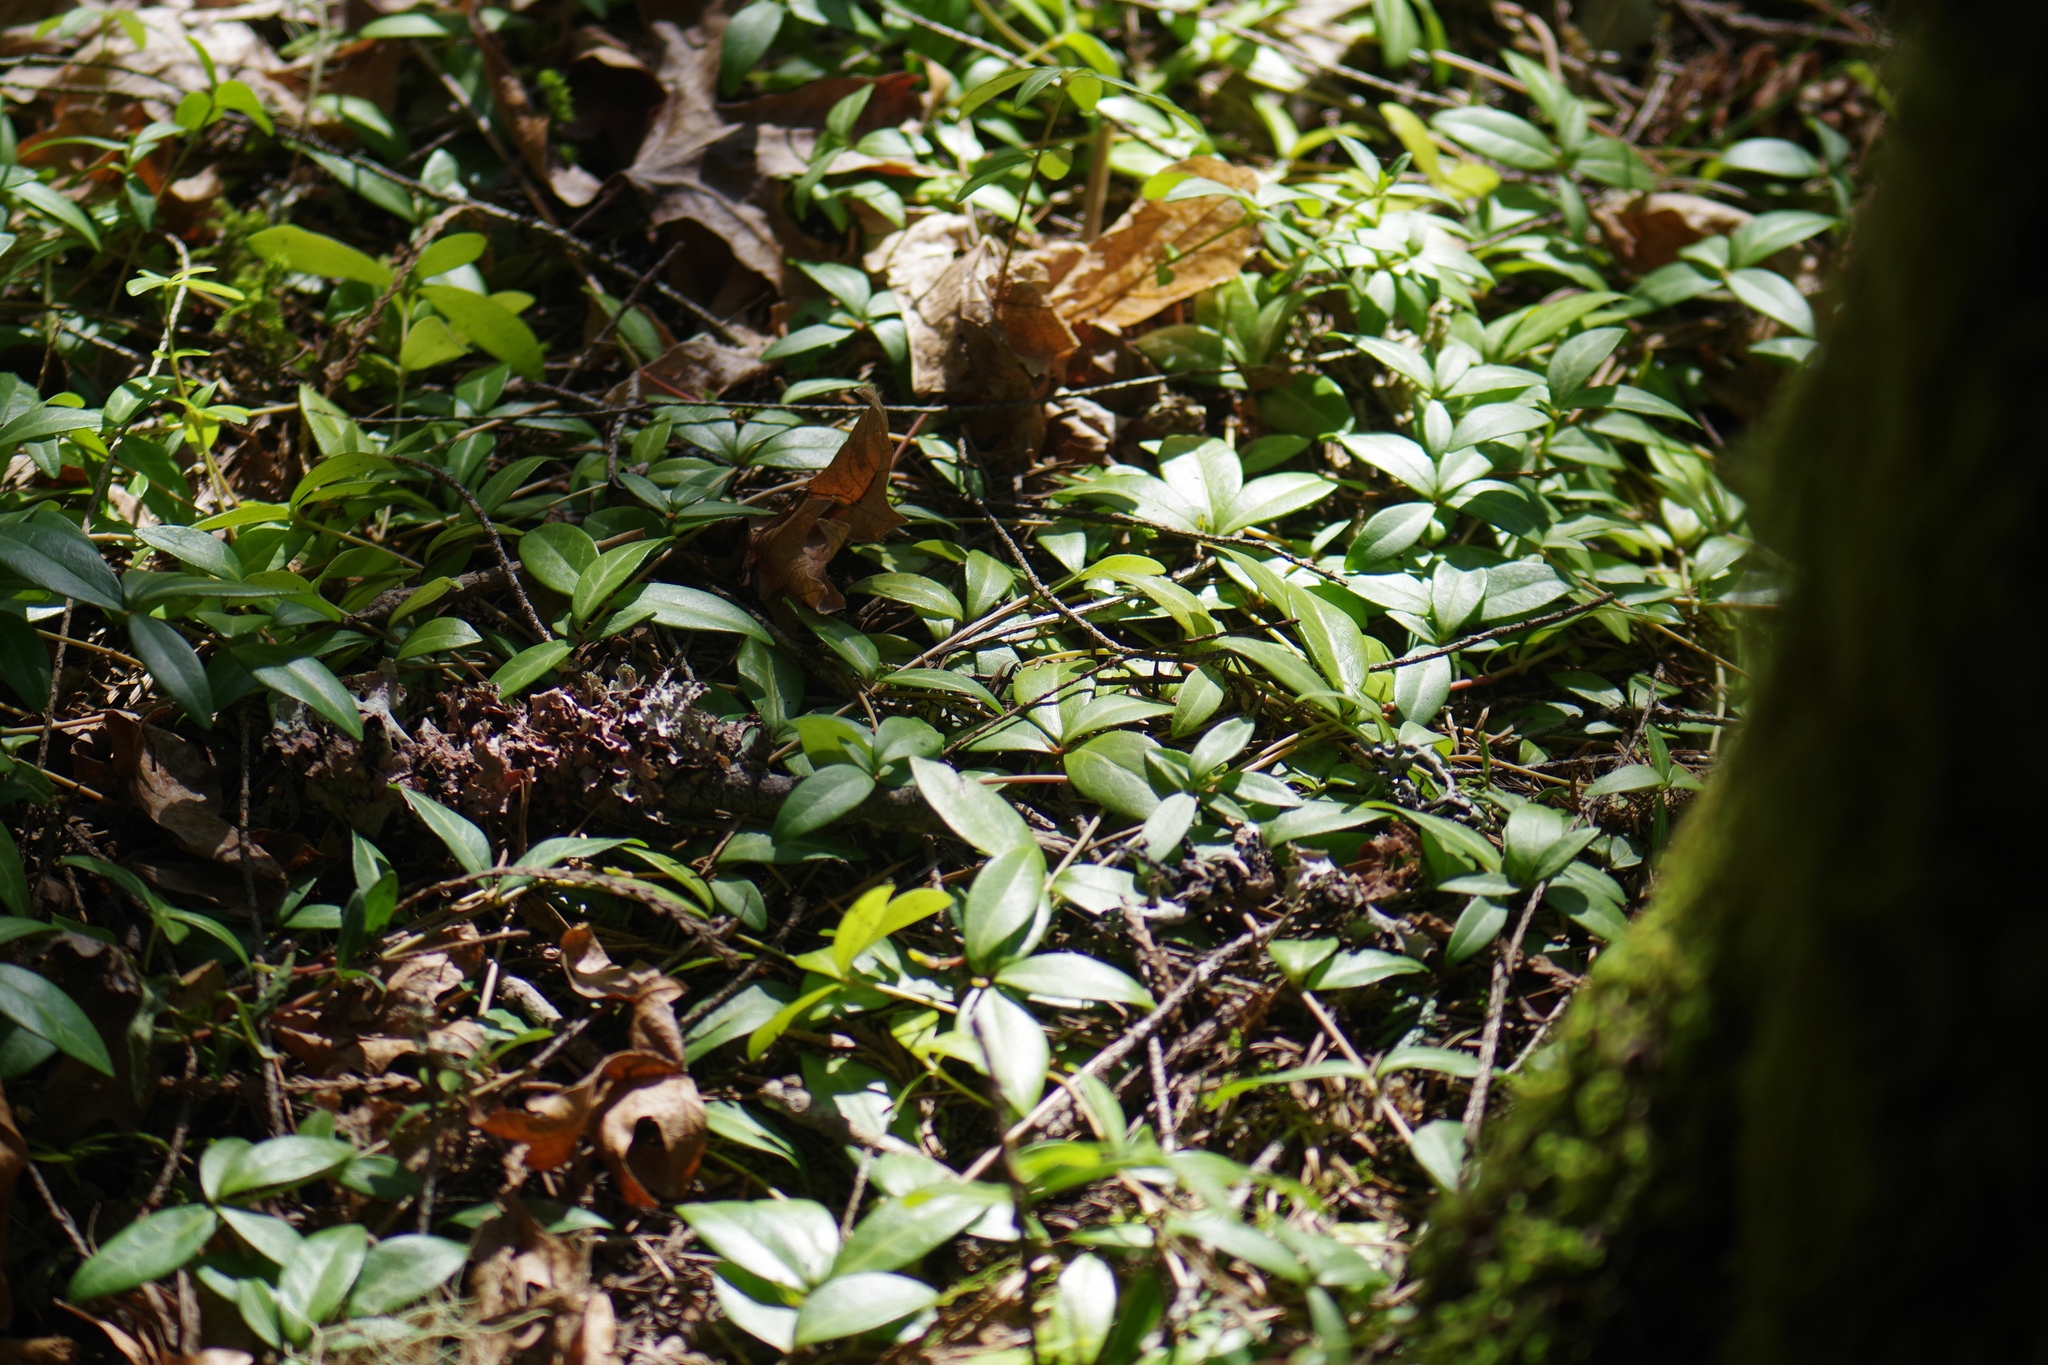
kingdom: Plantae
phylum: Tracheophyta
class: Magnoliopsida
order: Gentianales
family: Apocynaceae
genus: Vinca
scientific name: Vinca minor
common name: Lesser periwinkle
